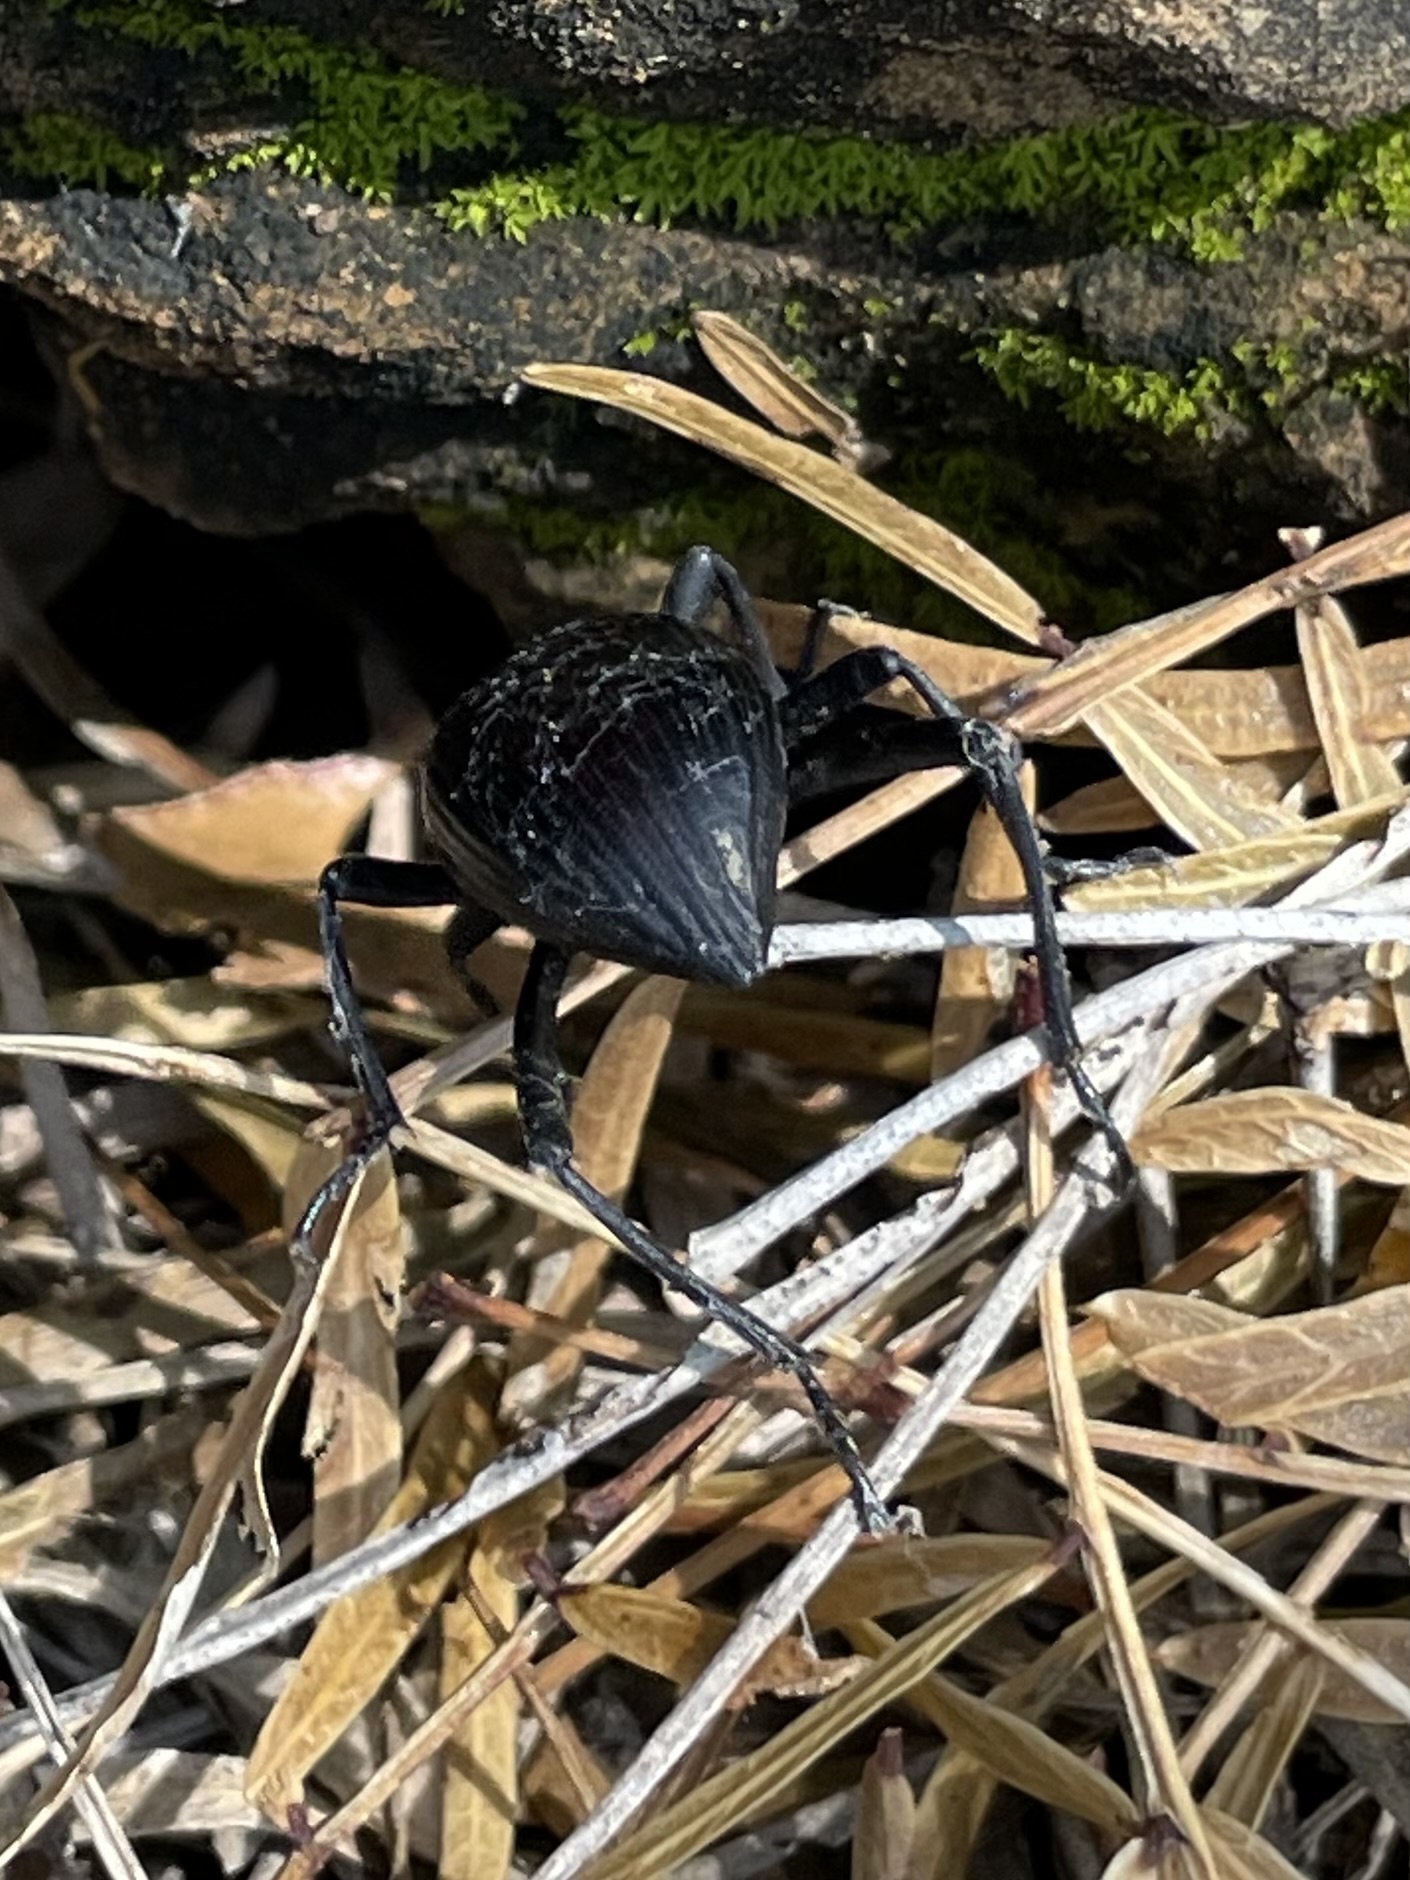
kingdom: Animalia
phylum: Arthropoda
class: Insecta
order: Coleoptera
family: Tenebrionidae
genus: Eleodes
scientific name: Eleodes hispilabris
